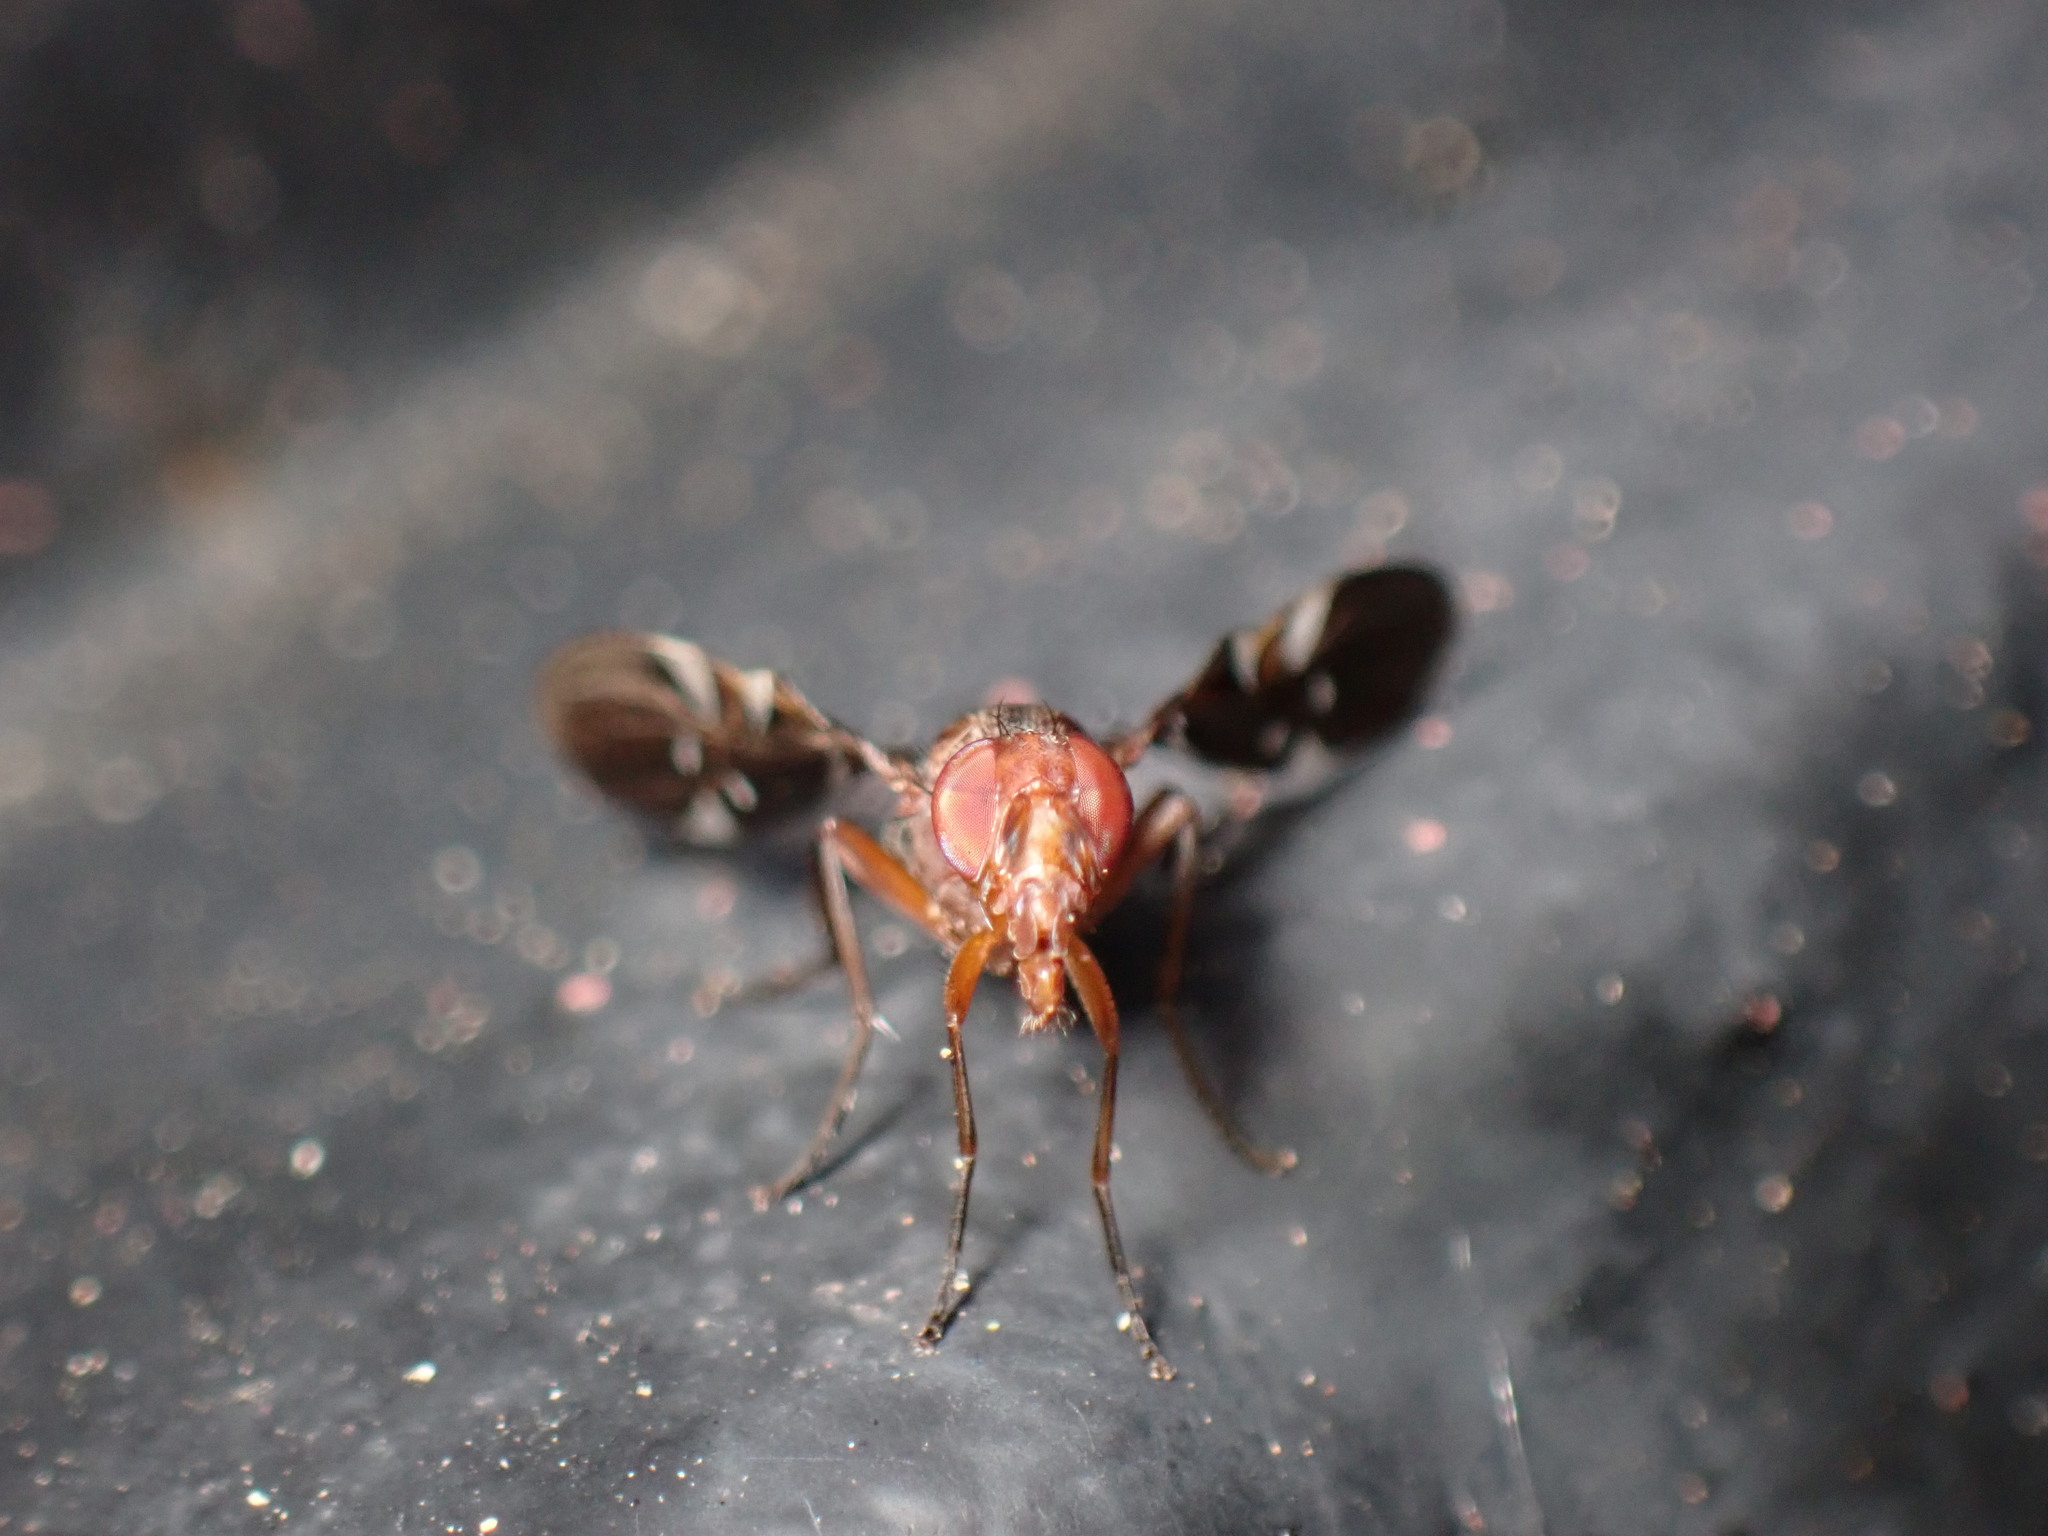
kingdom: Animalia
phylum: Arthropoda
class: Insecta
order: Diptera
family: Ulidiidae
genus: Delphinia
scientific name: Delphinia picta
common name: Common picture-winged fly
